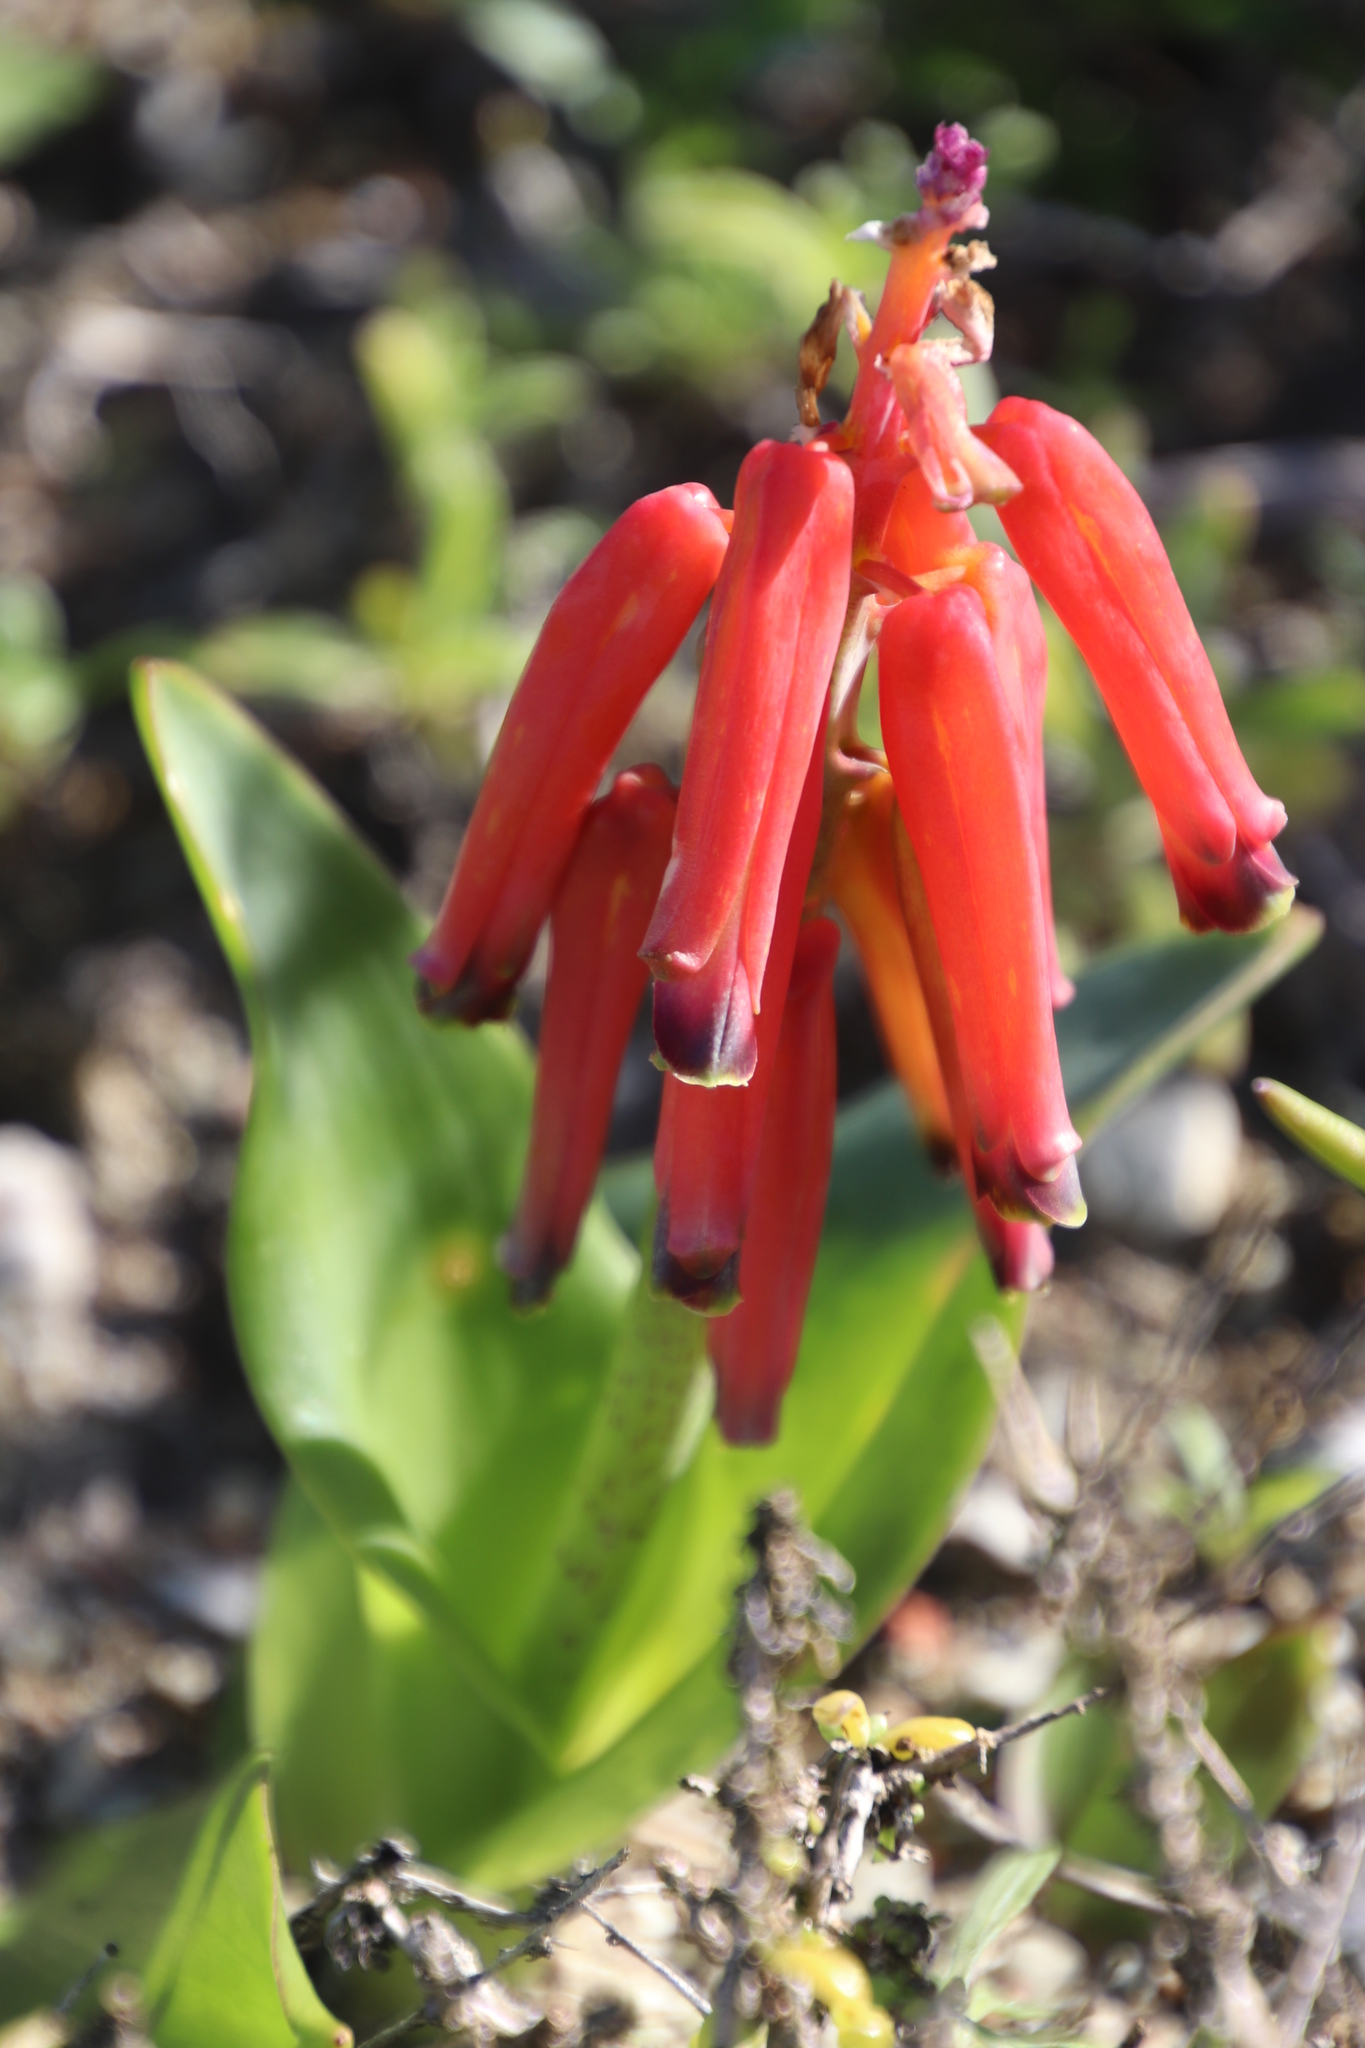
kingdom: Plantae
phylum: Tracheophyta
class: Liliopsida
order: Asparagales
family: Asparagaceae
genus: Lachenalia
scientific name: Lachenalia bulbifera
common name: Red lachenalia
